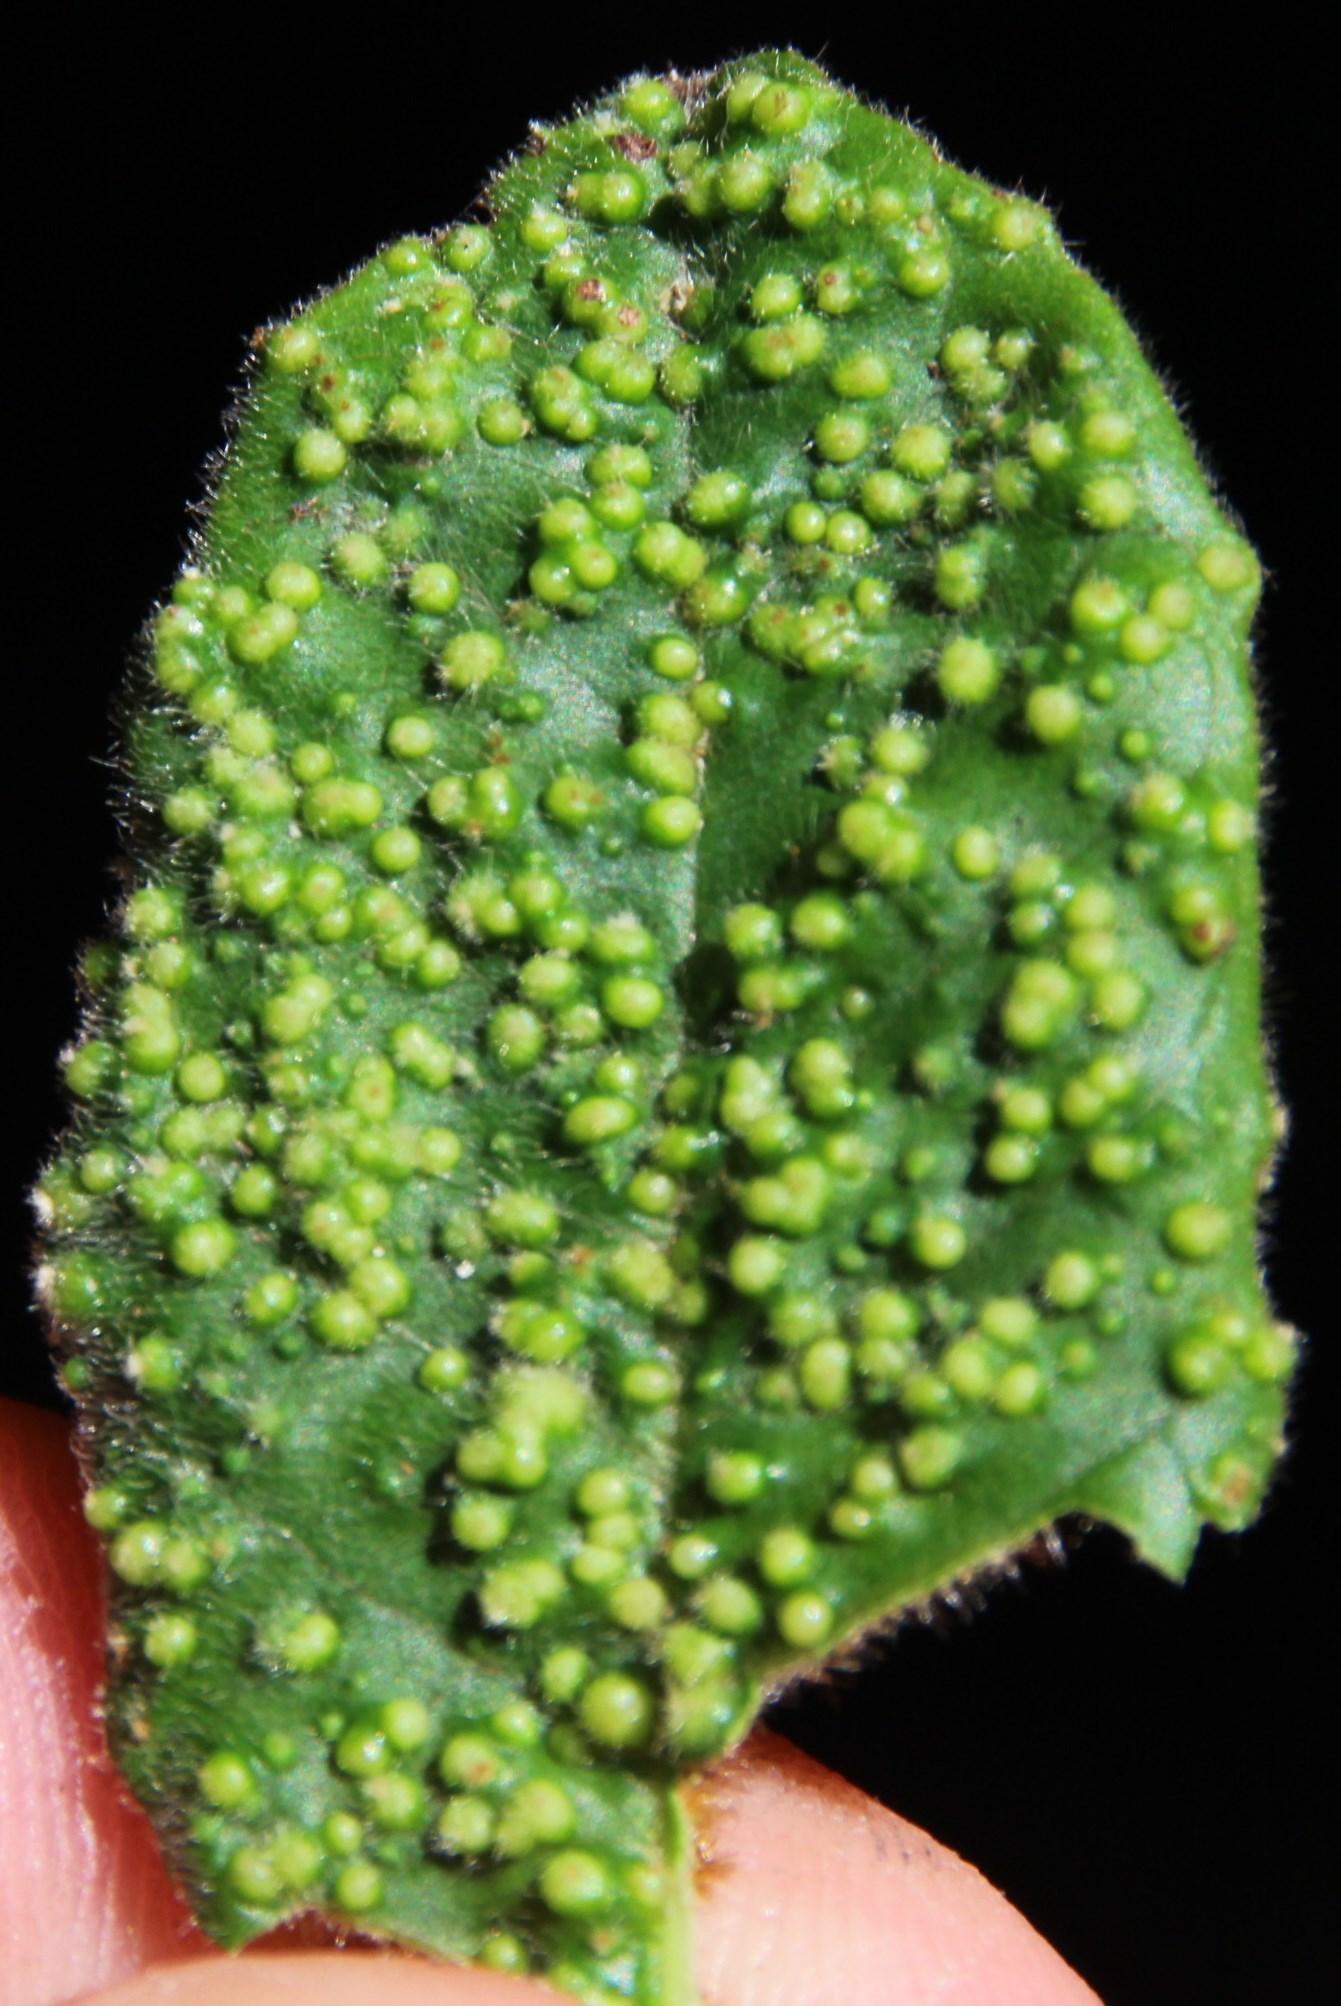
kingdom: Animalia
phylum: Arthropoda
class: Arachnida
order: Trombidiformes
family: Phytoptidae
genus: Phytoptus
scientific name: Phytoptus
